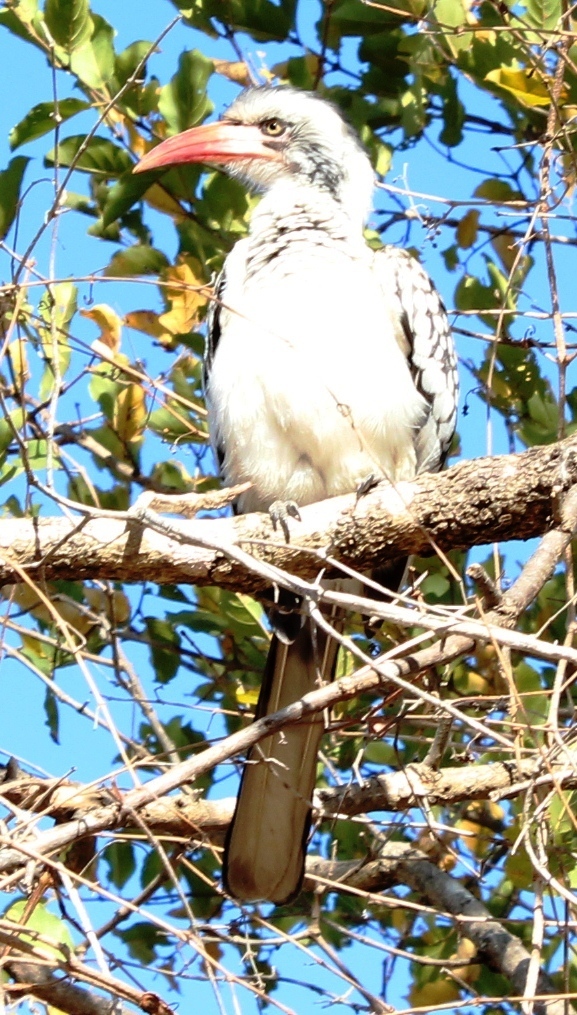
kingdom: Animalia
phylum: Chordata
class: Aves
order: Bucerotiformes
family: Bucerotidae
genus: Tockus
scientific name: Tockus rufirostris
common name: Southern red-billed hornbill
